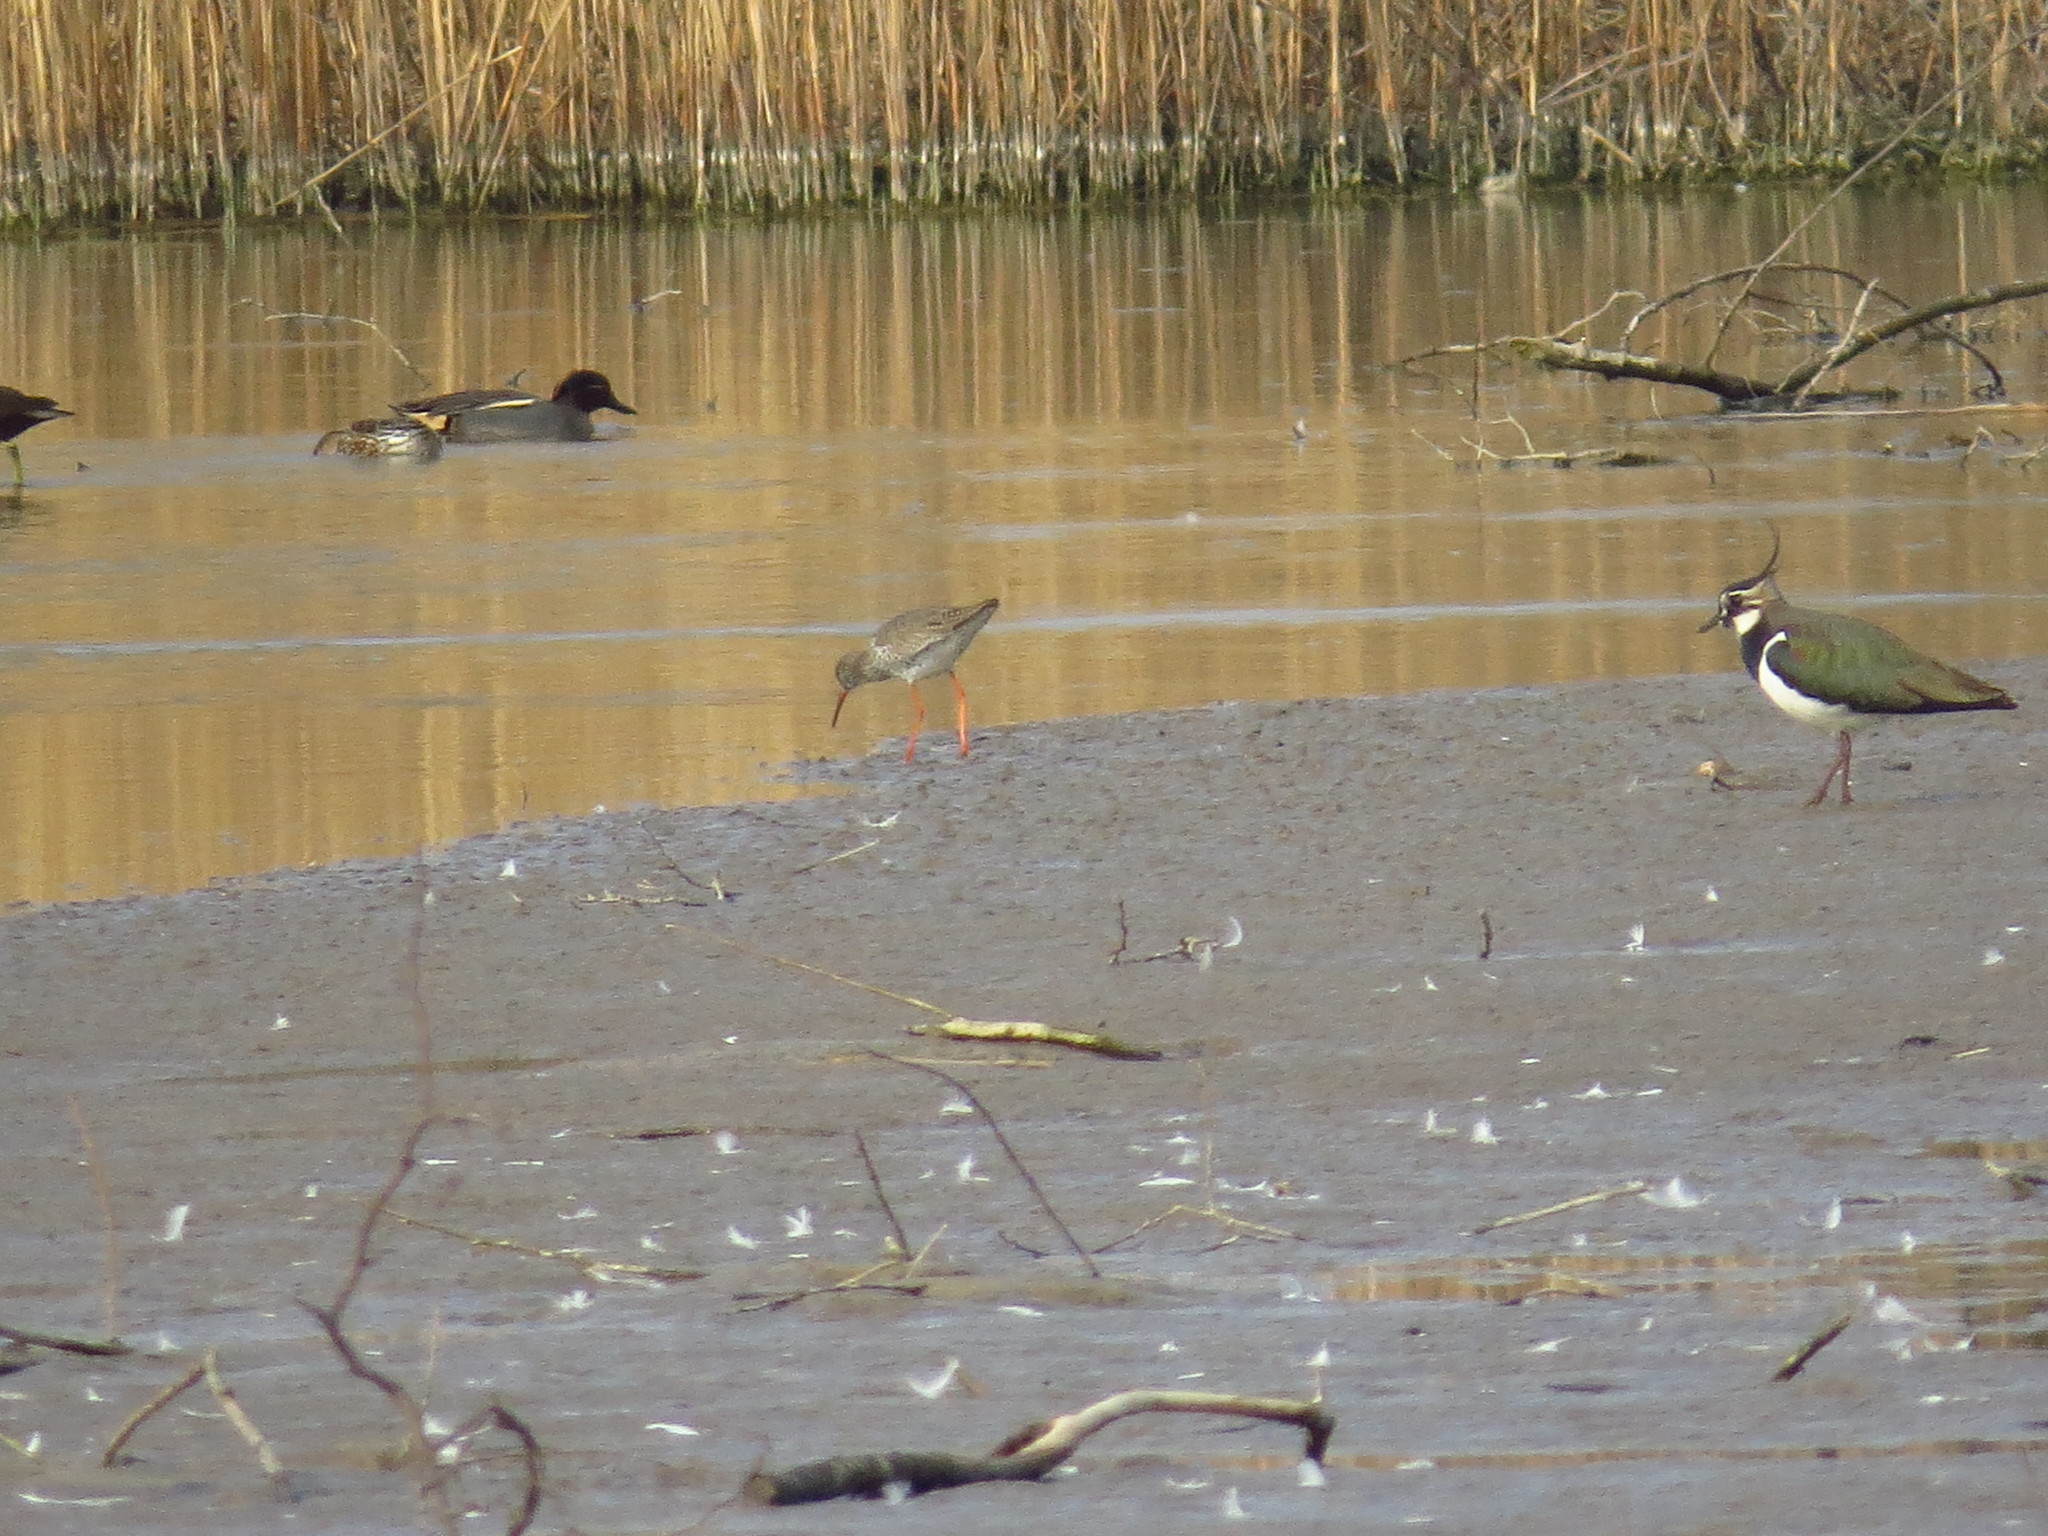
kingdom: Animalia
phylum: Chordata
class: Aves
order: Charadriiformes
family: Scolopacidae
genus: Tringa
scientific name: Tringa totanus
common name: Common redshank
